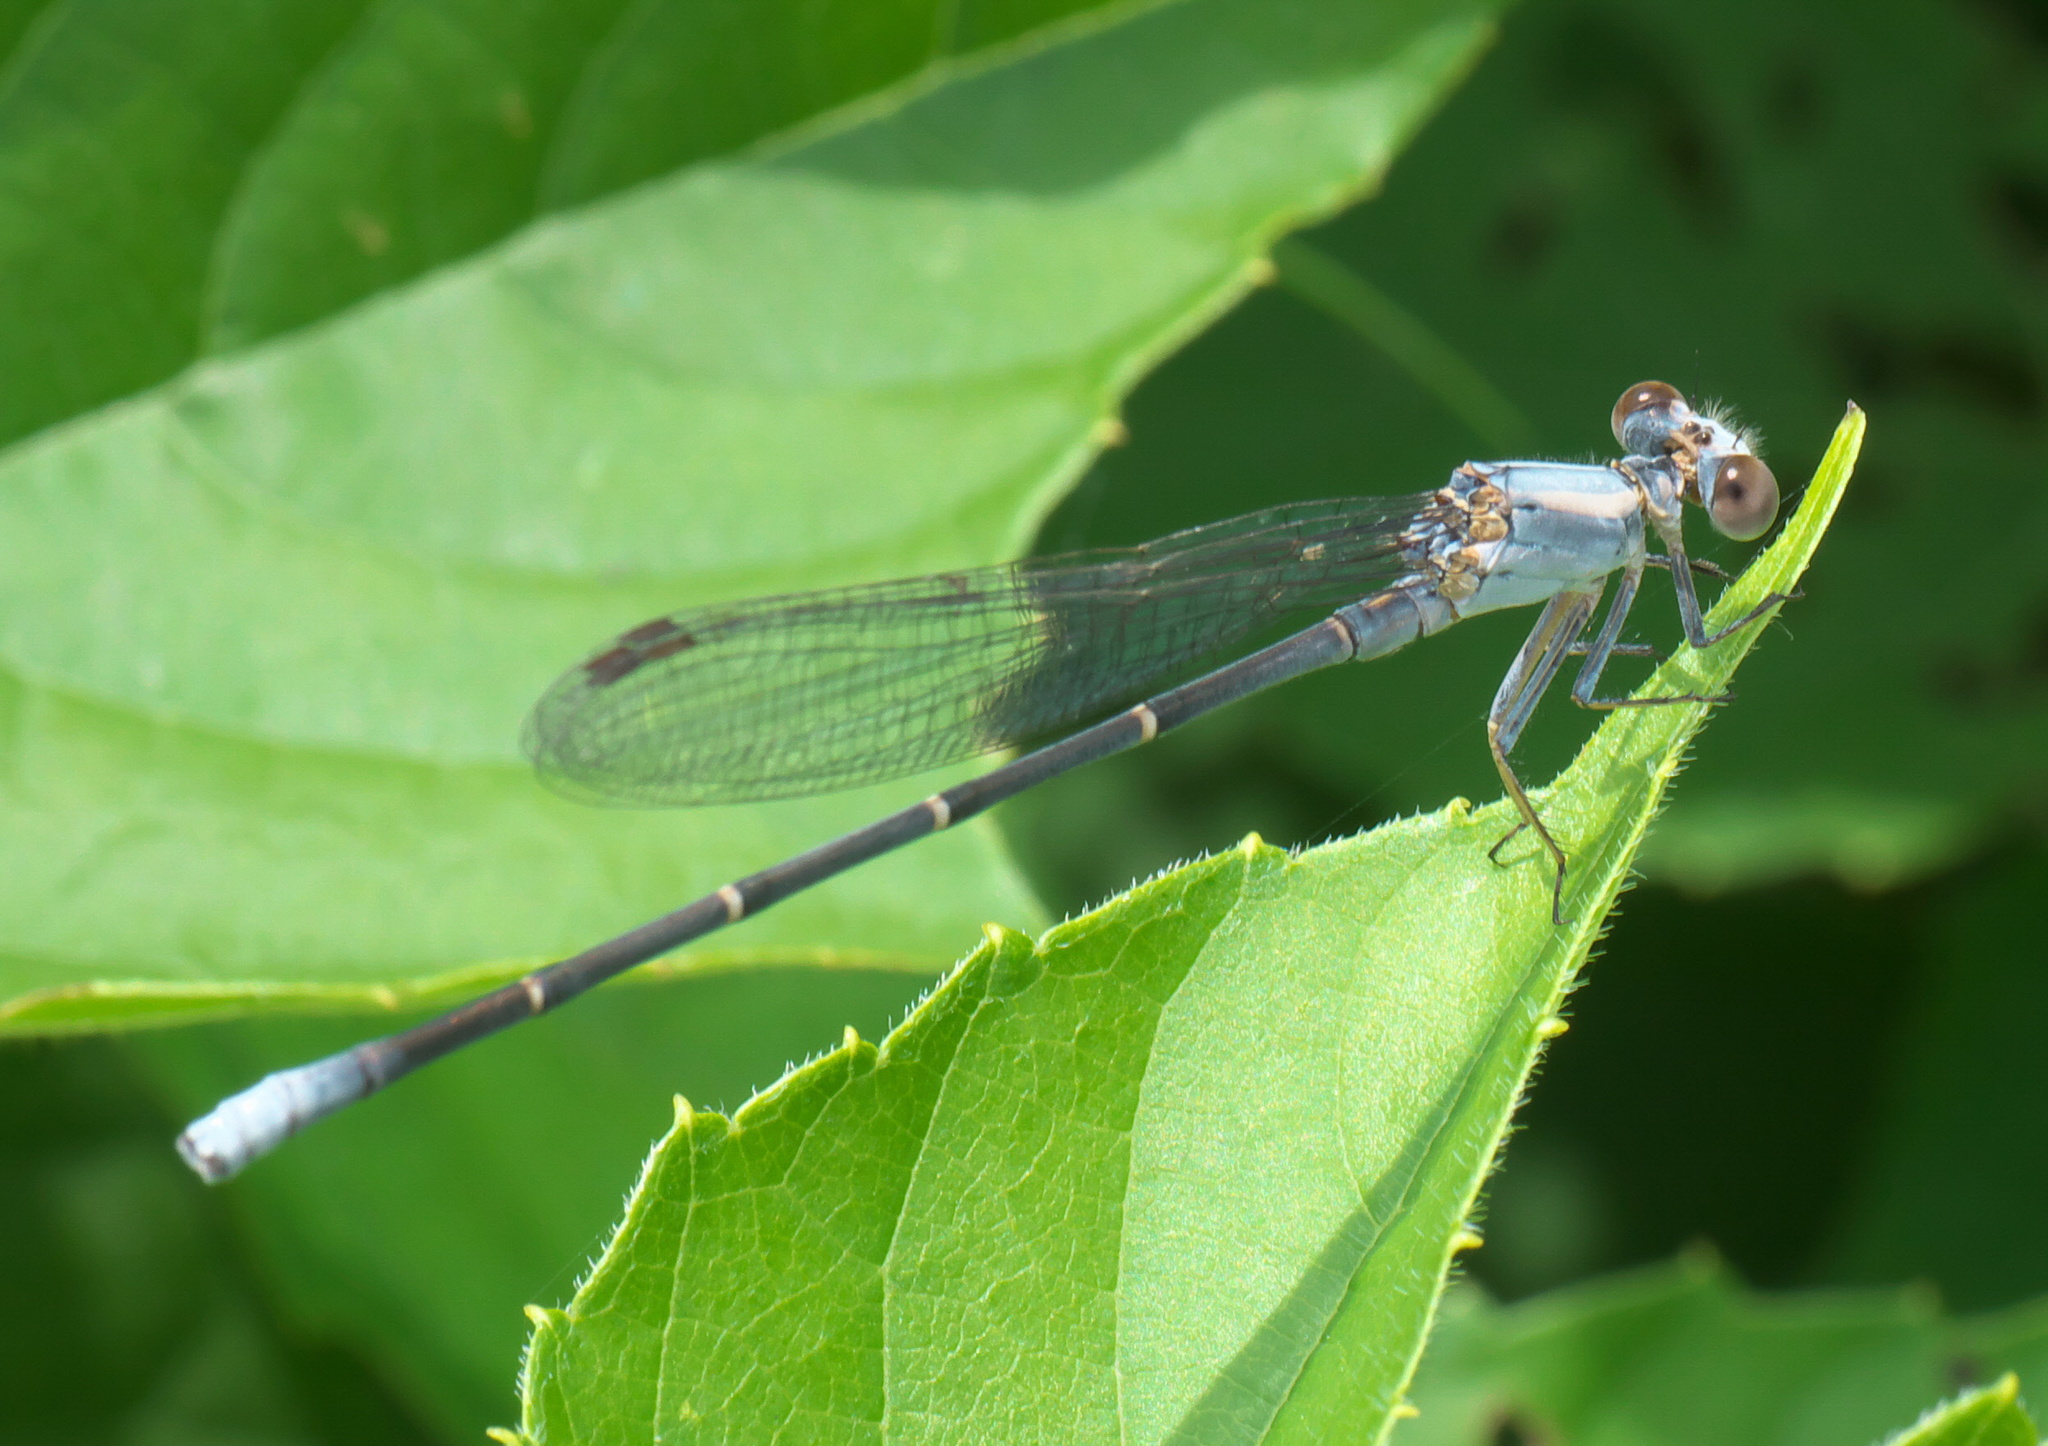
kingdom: Animalia
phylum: Arthropoda
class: Insecta
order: Odonata
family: Coenagrionidae
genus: Argia
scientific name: Argia moesta
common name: Powdered dancer
